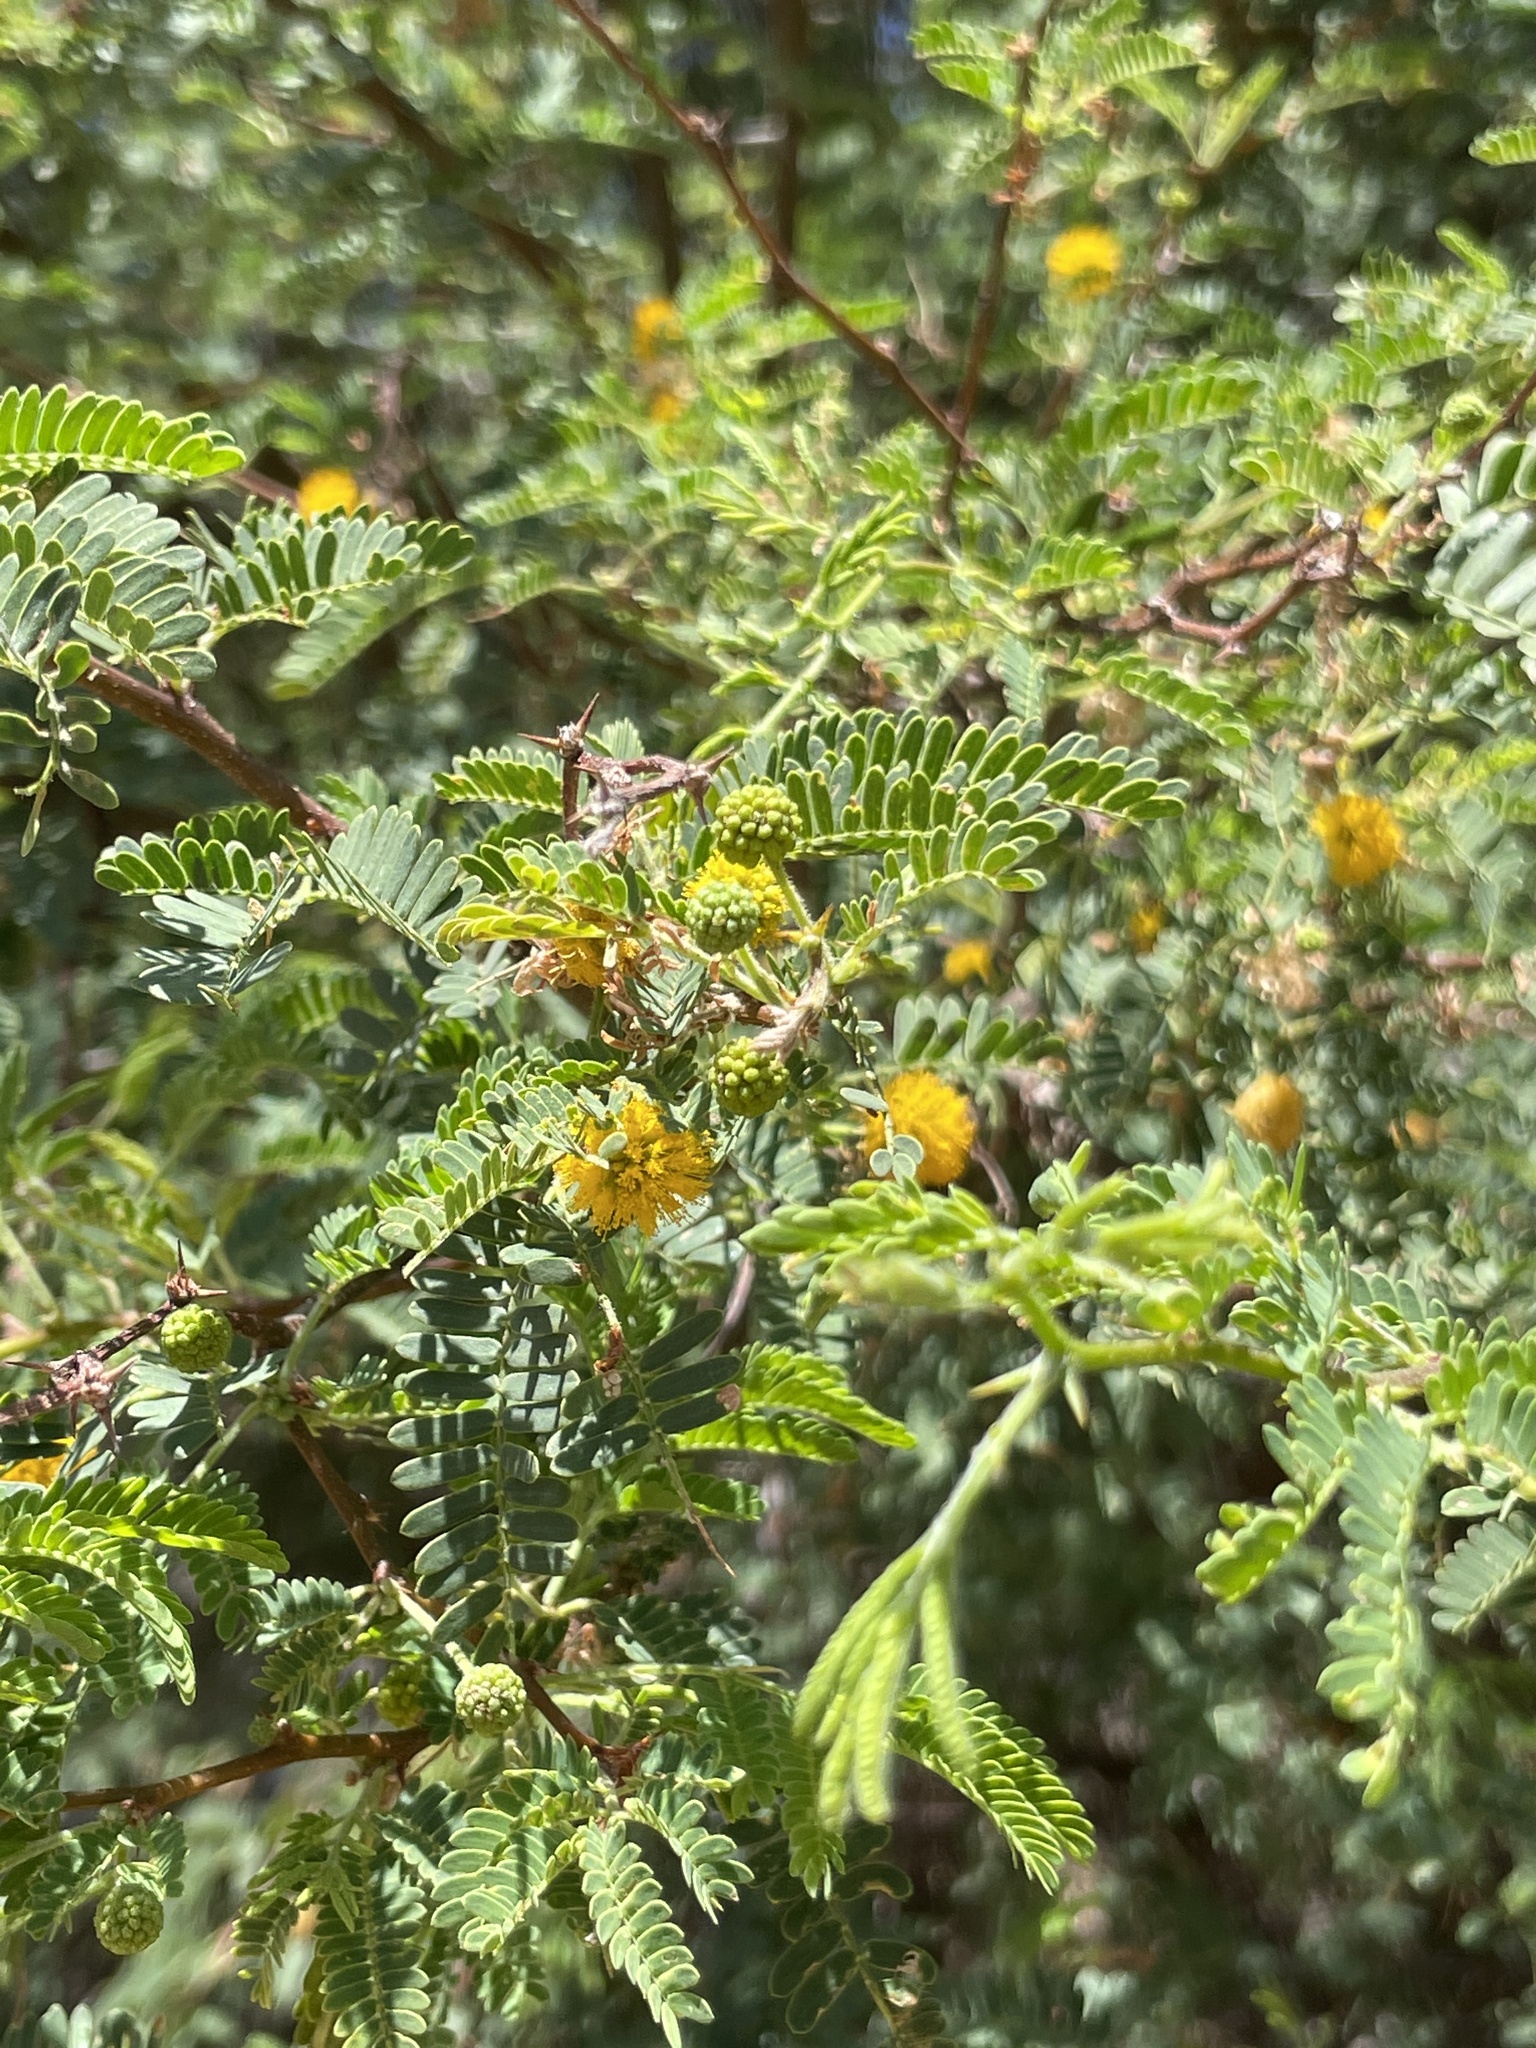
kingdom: Plantae
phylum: Tracheophyta
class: Magnoliopsida
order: Fabales
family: Fabaceae
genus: Vachellia
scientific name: Vachellia farnesiana
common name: Sweet acacia
